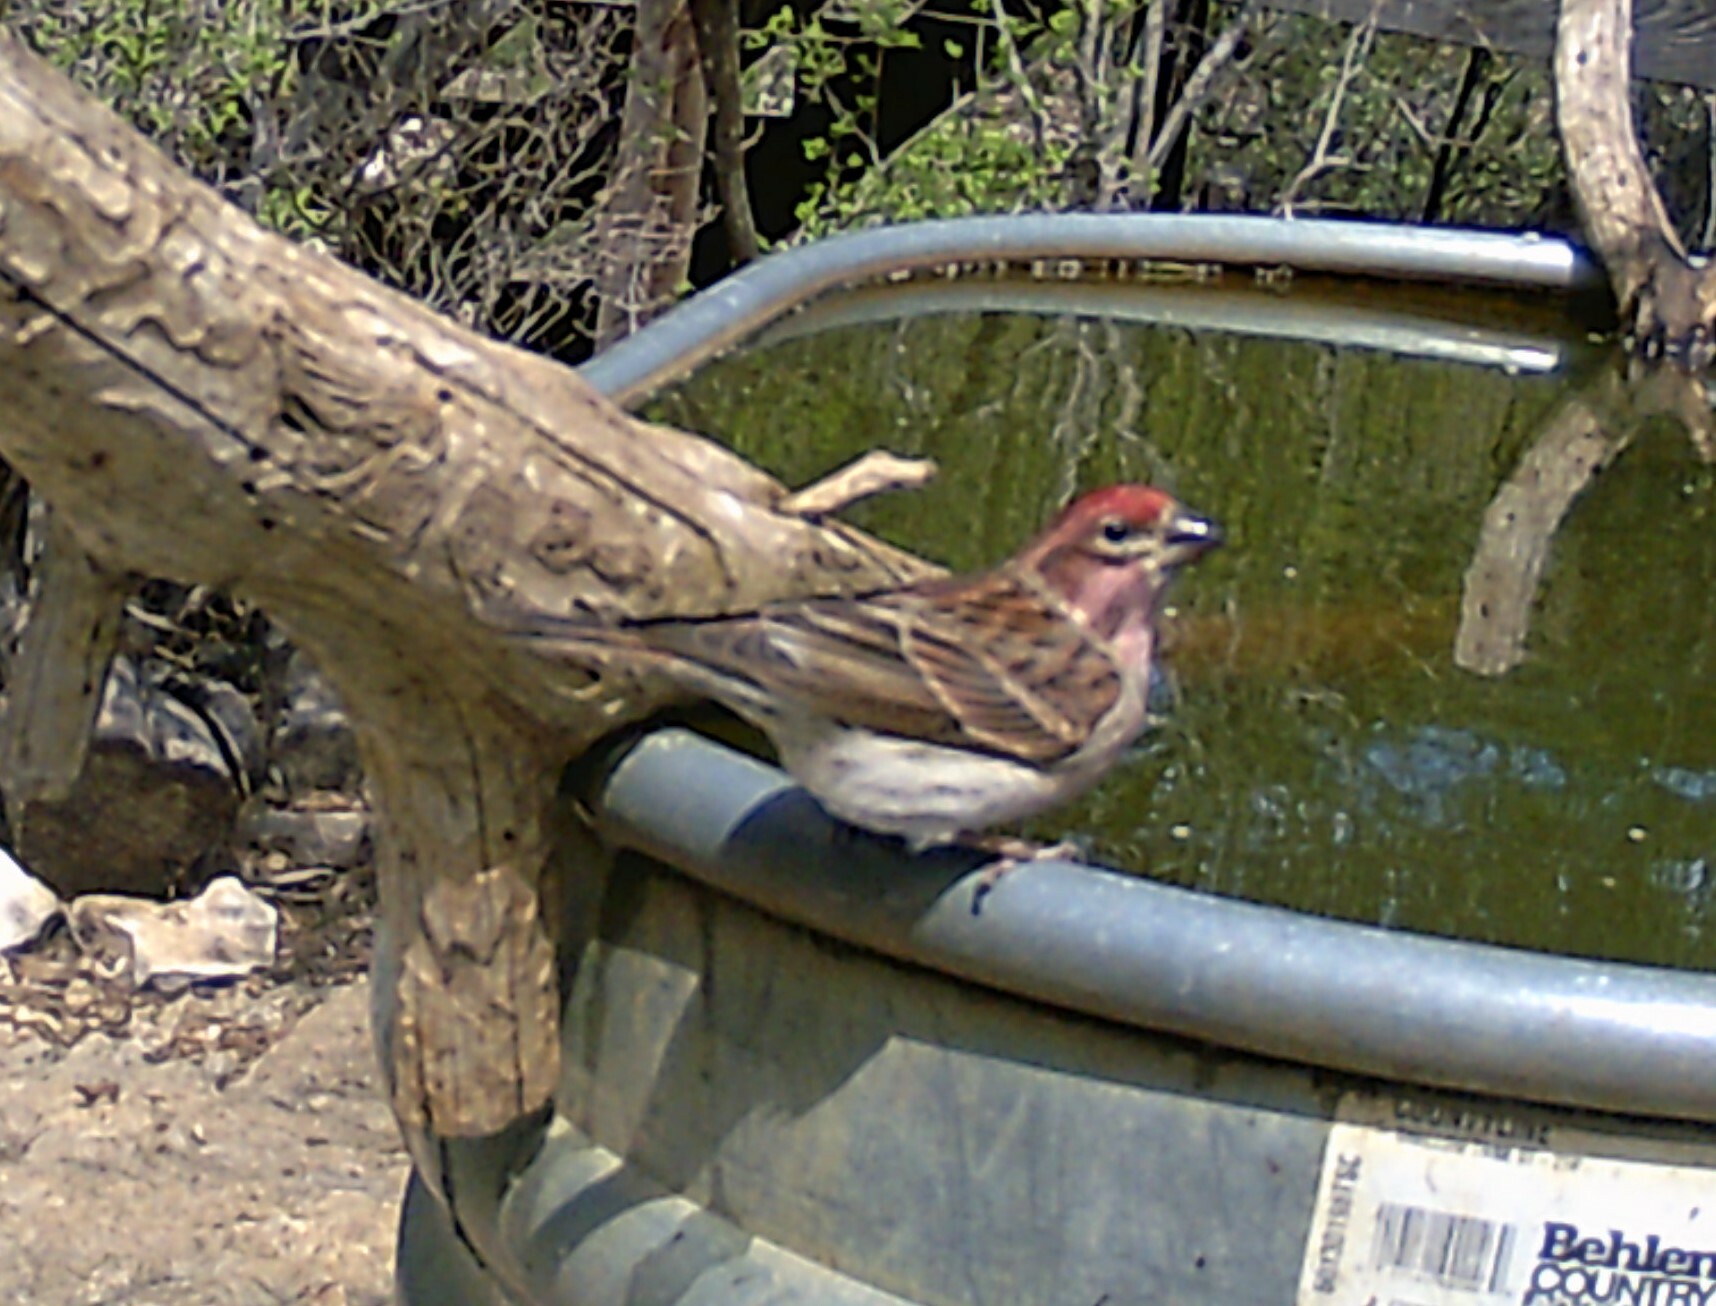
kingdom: Animalia
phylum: Chordata
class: Aves
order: Passeriformes
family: Fringillidae
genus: Haemorhous
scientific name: Haemorhous cassinii
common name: Cassin's finch
